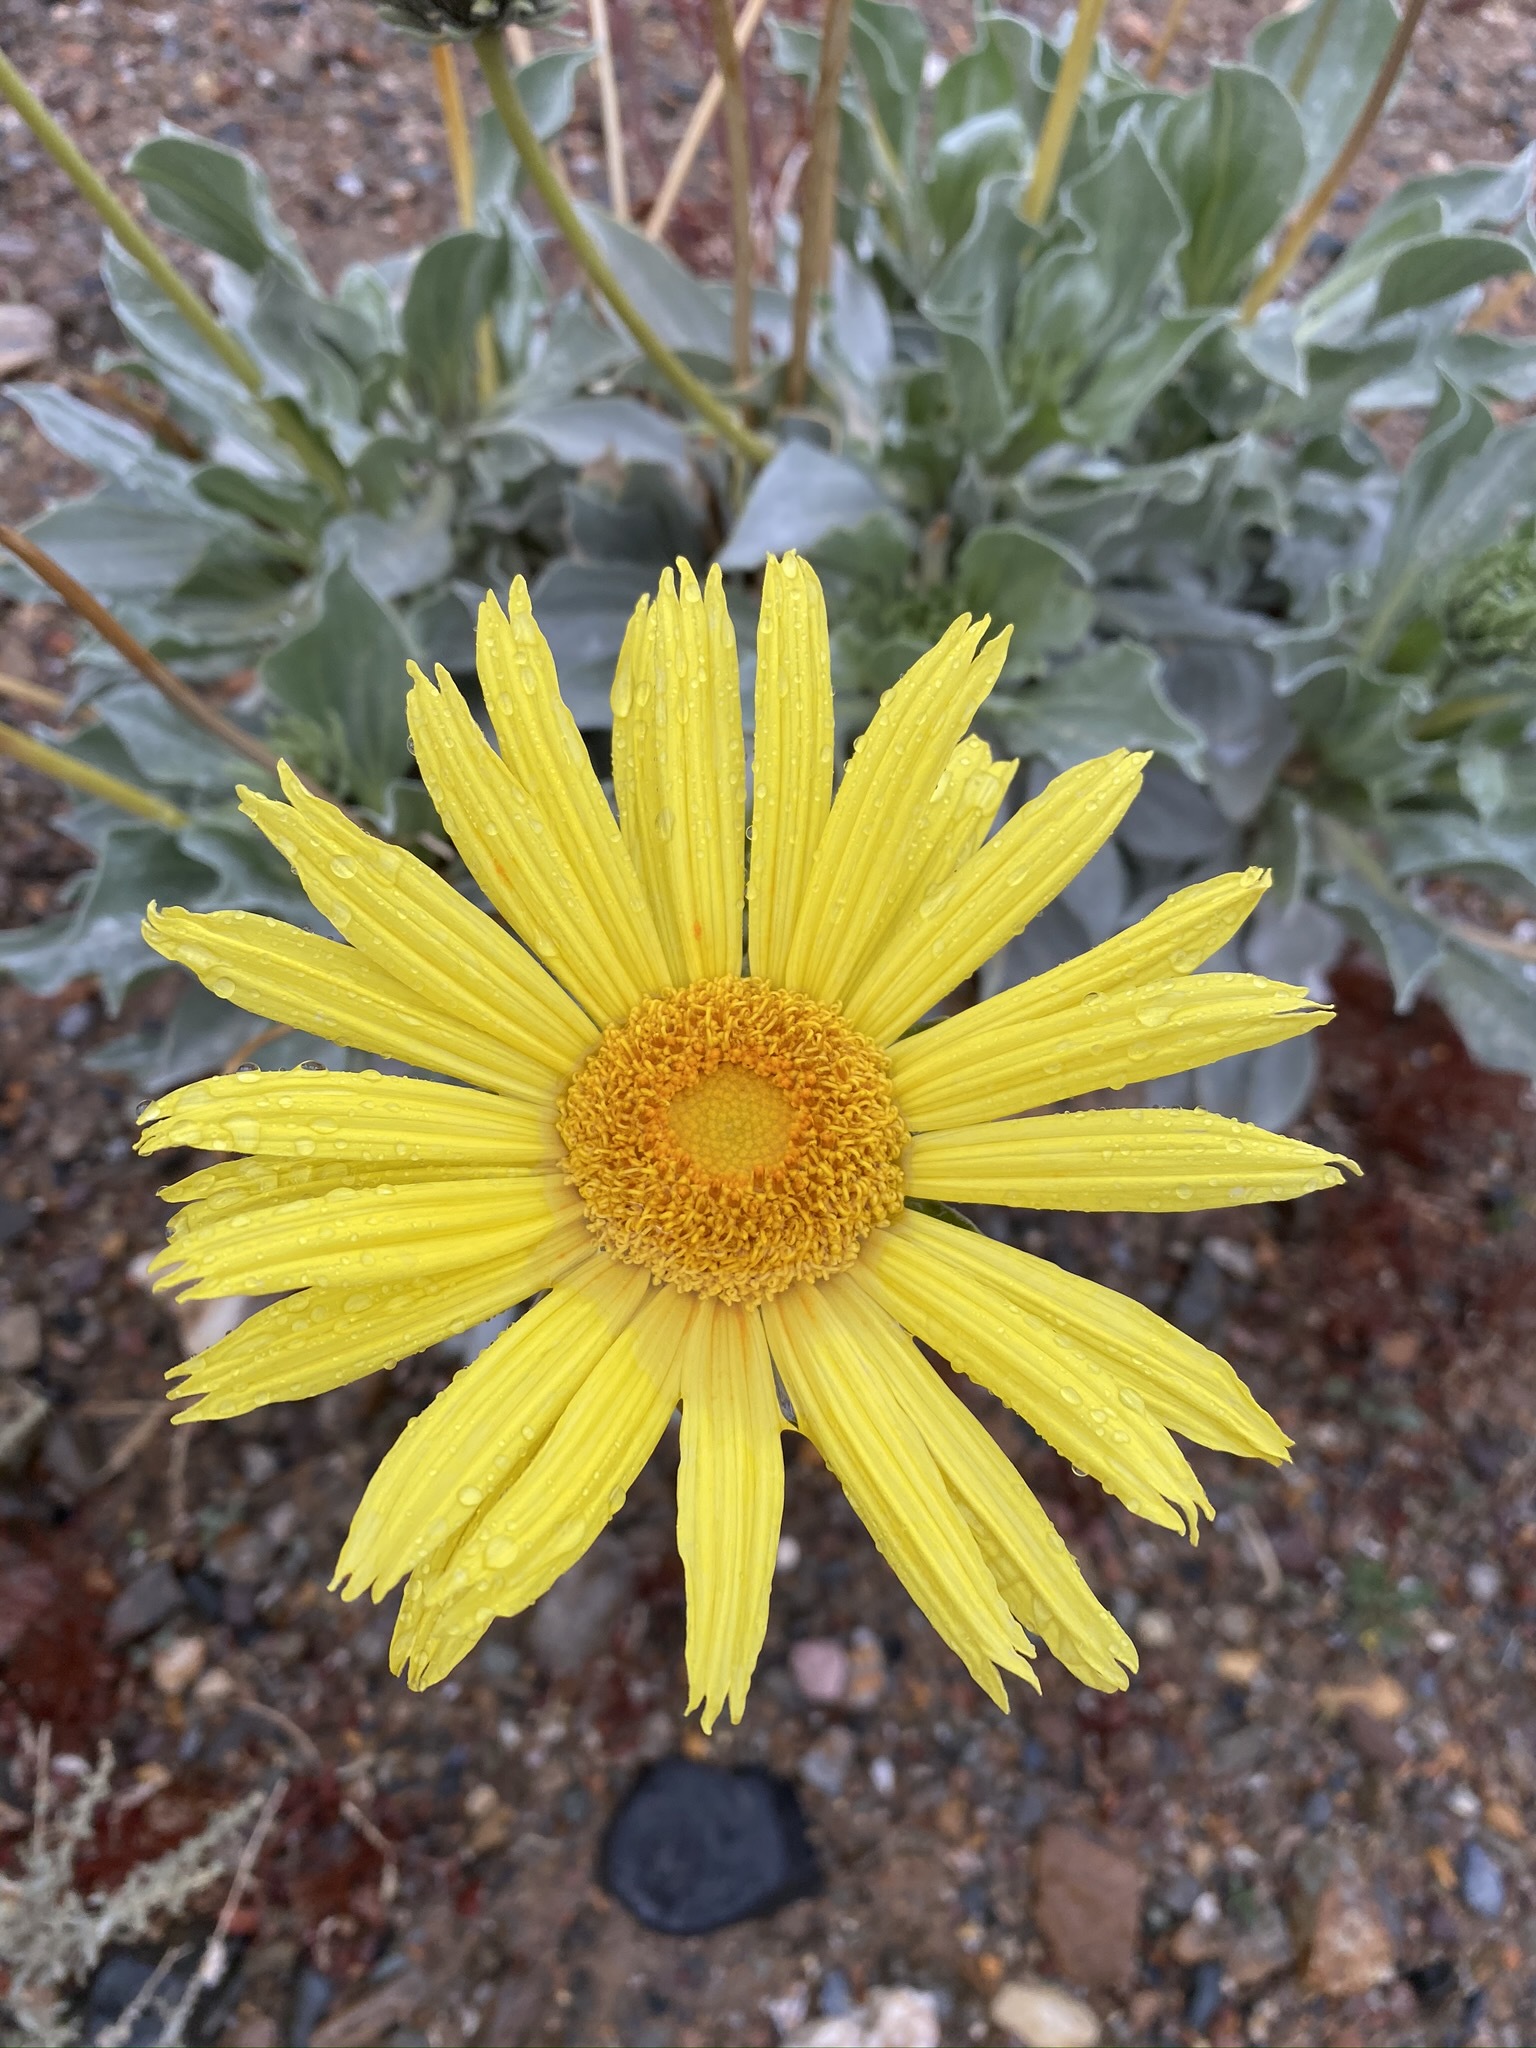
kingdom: Plantae
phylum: Tracheophyta
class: Magnoliopsida
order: Asterales
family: Asteraceae
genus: Enceliopsis
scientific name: Enceliopsis covillei
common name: Panamint daisy
